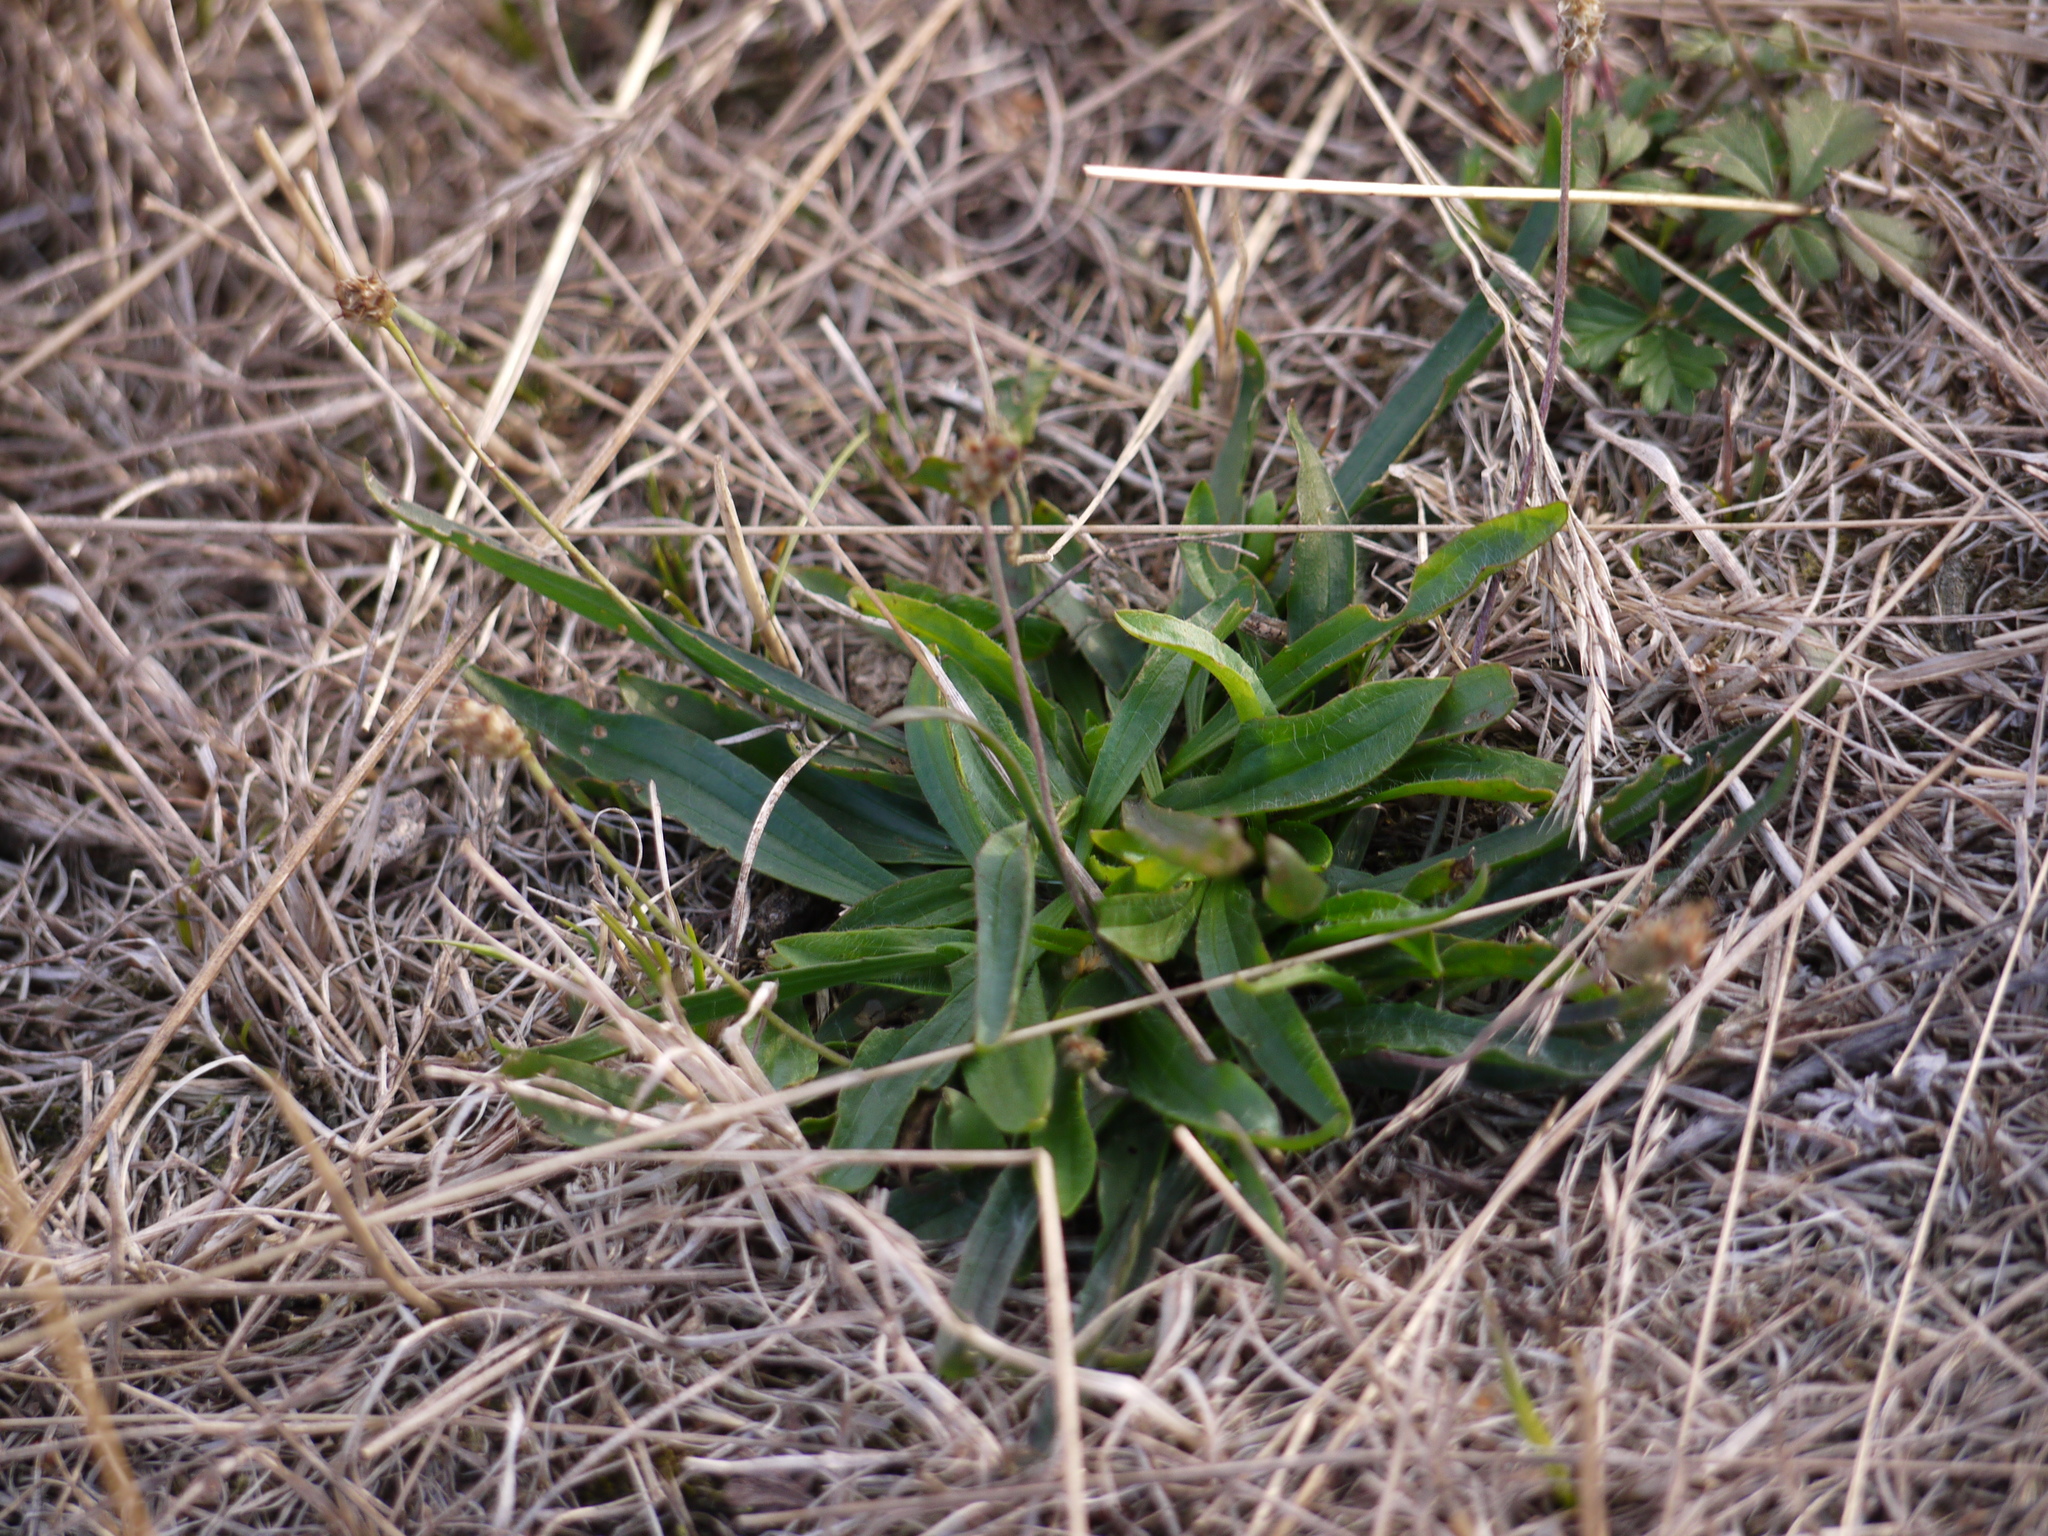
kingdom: Plantae
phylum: Tracheophyta
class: Magnoliopsida
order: Lamiales
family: Plantaginaceae
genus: Plantago
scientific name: Plantago lanceolata
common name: Ribwort plantain
